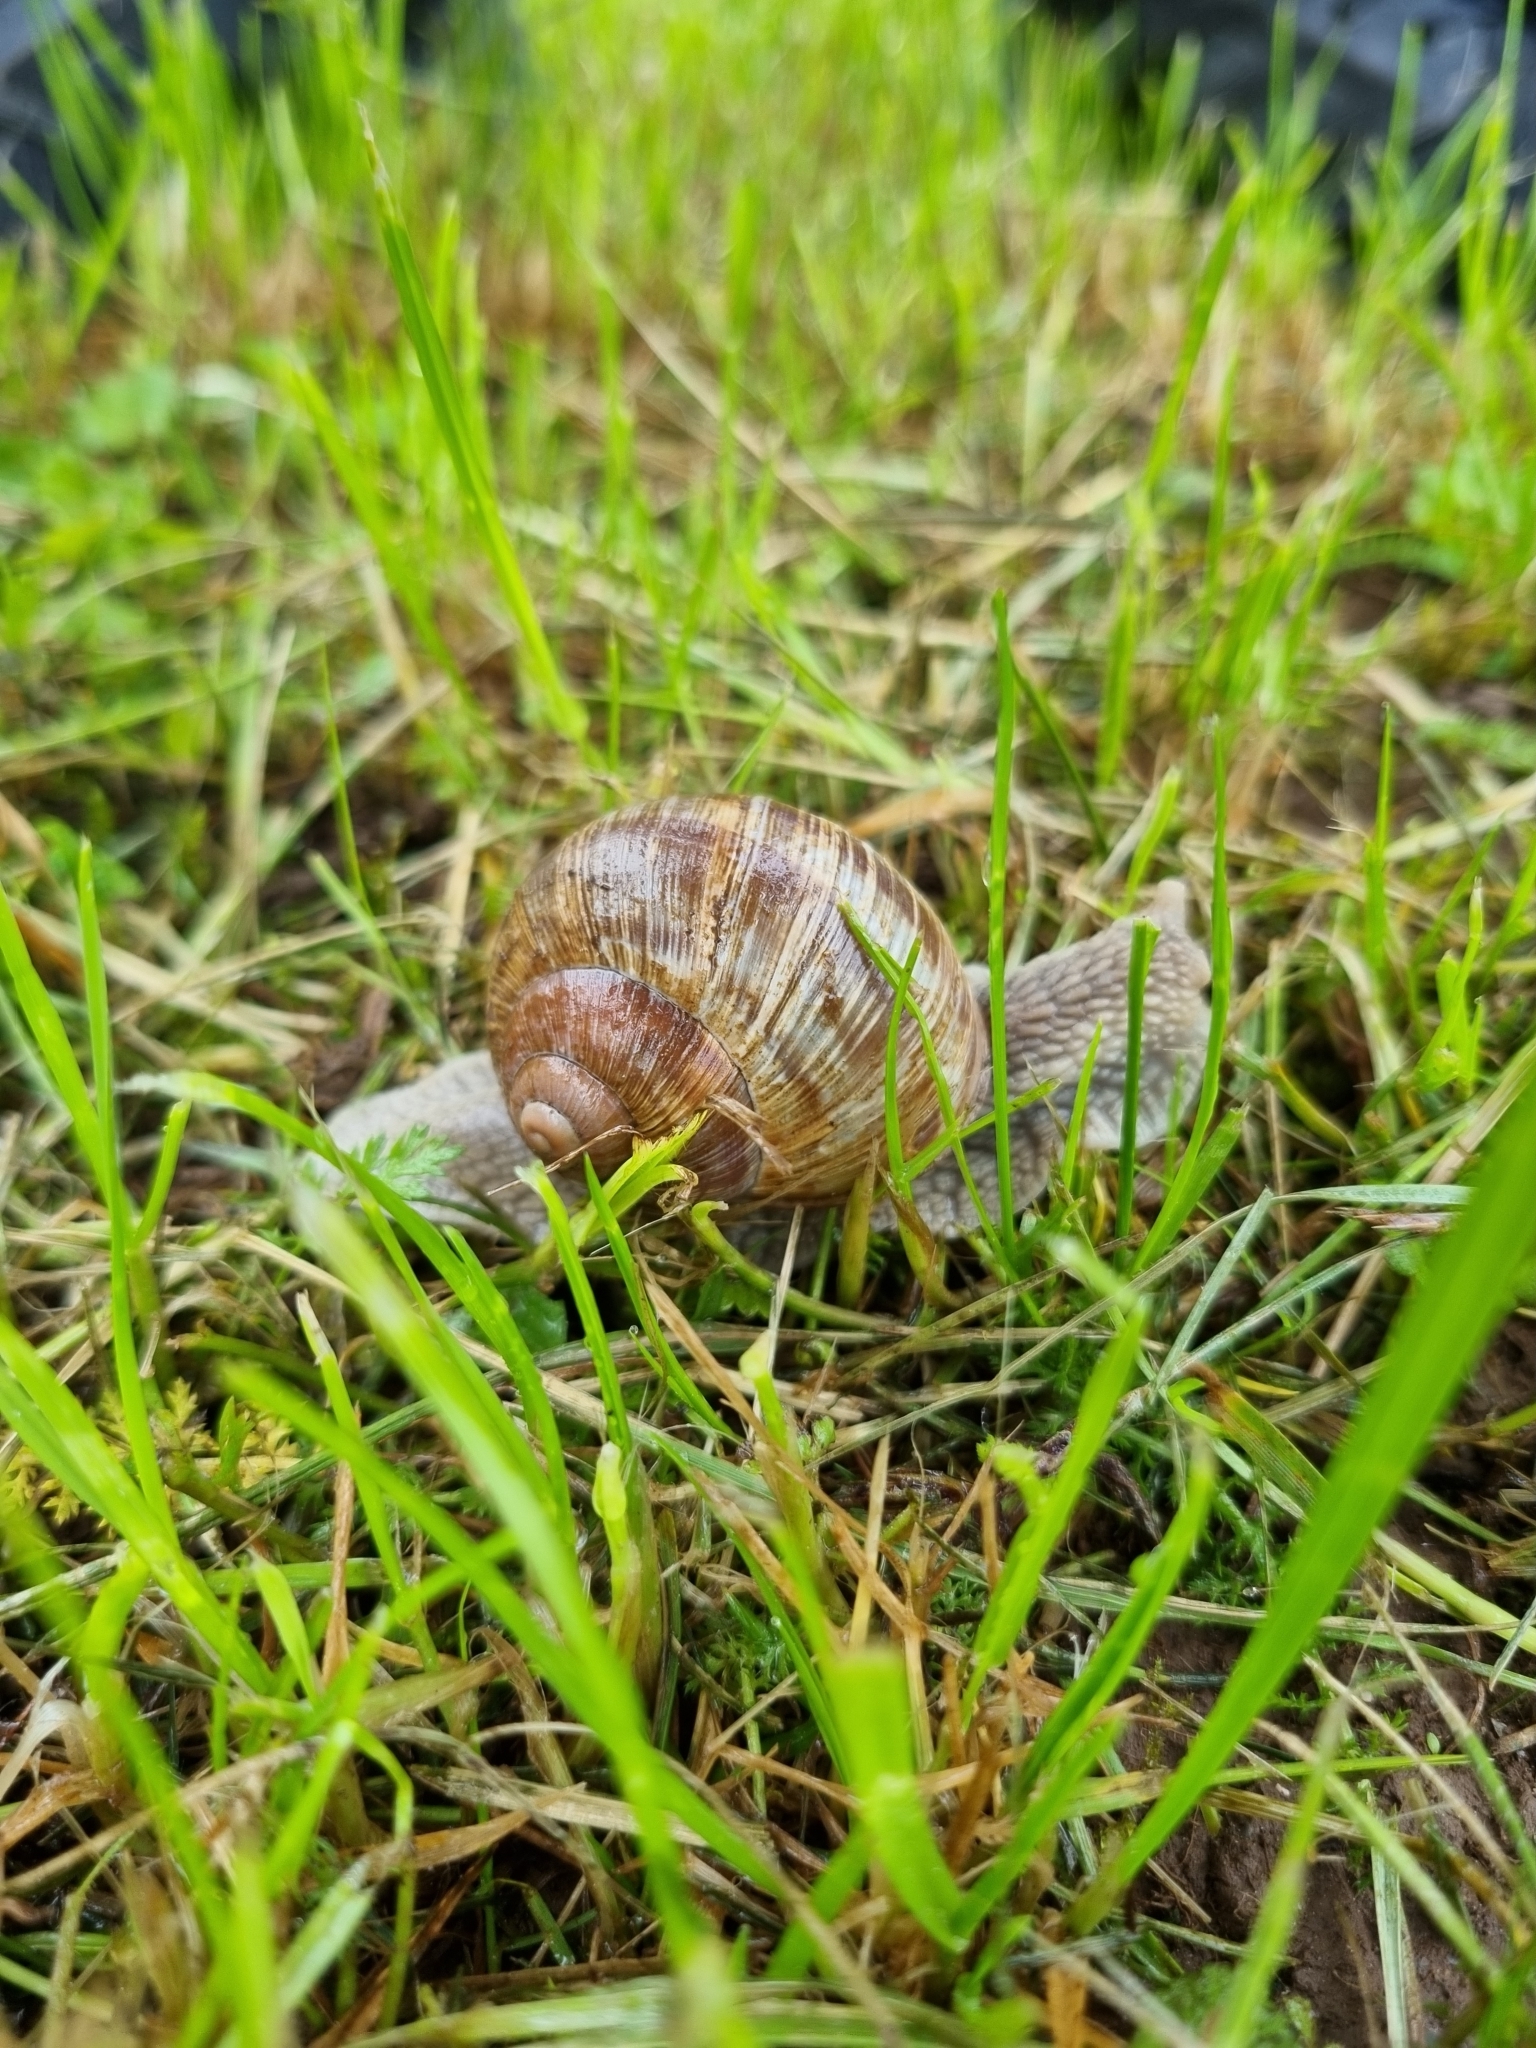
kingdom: Animalia
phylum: Mollusca
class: Gastropoda
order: Stylommatophora
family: Helicidae
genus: Helix
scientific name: Helix pomatia
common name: Roman snail
